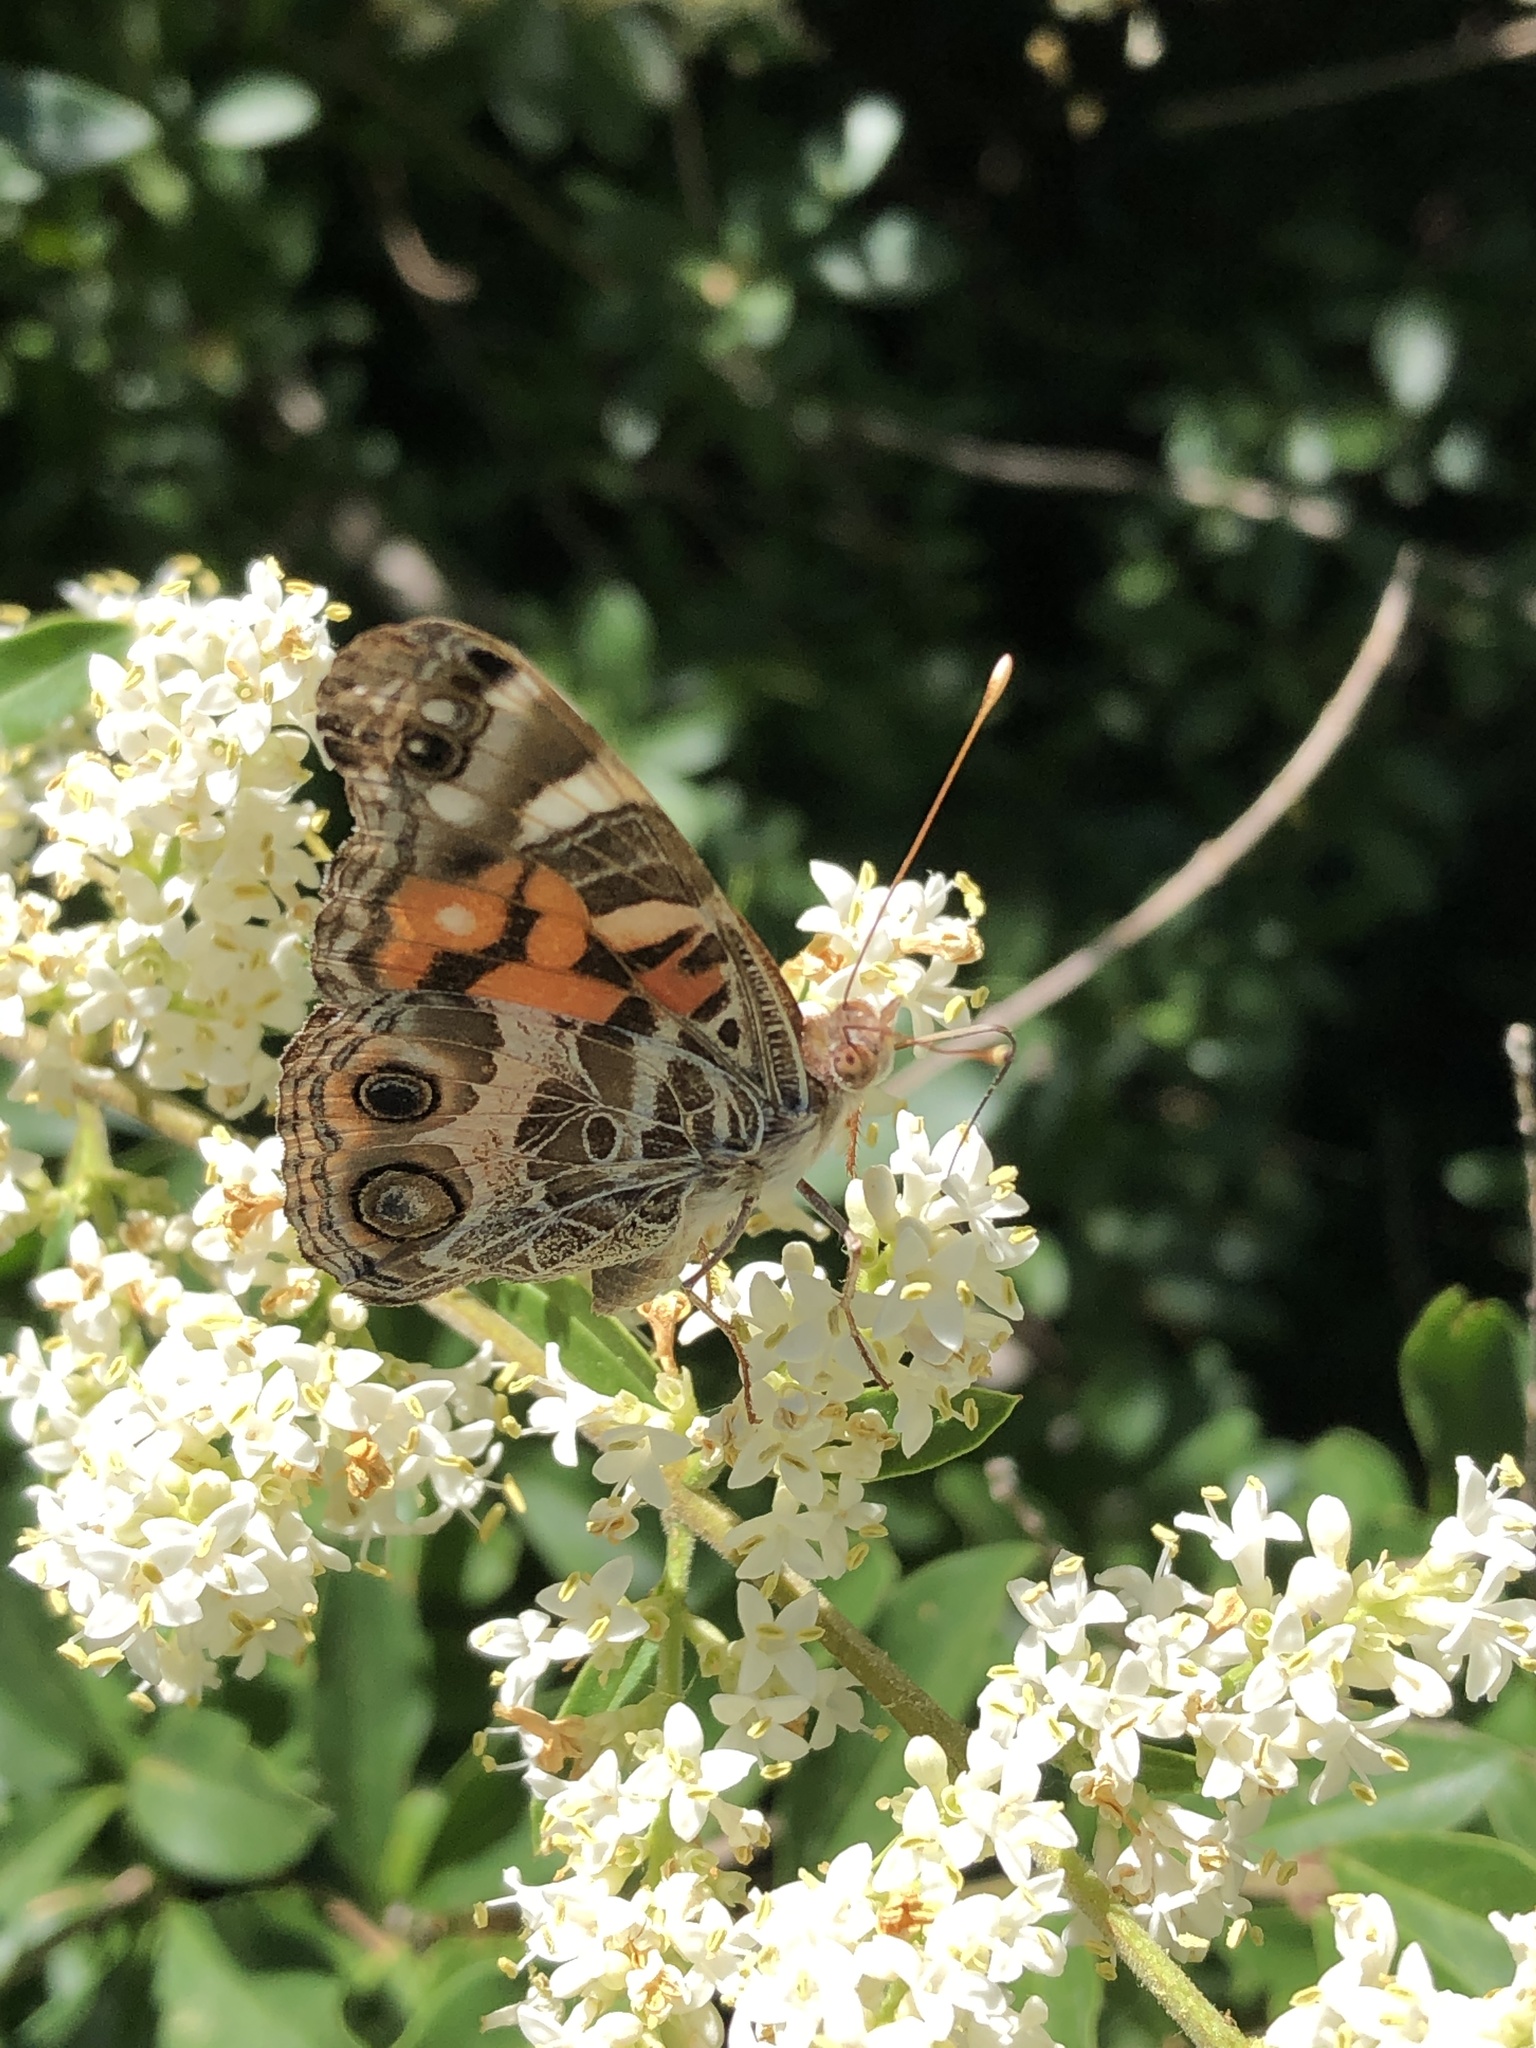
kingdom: Animalia
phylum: Arthropoda
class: Insecta
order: Lepidoptera
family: Nymphalidae
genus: Vanessa
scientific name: Vanessa virginiensis
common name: American lady
